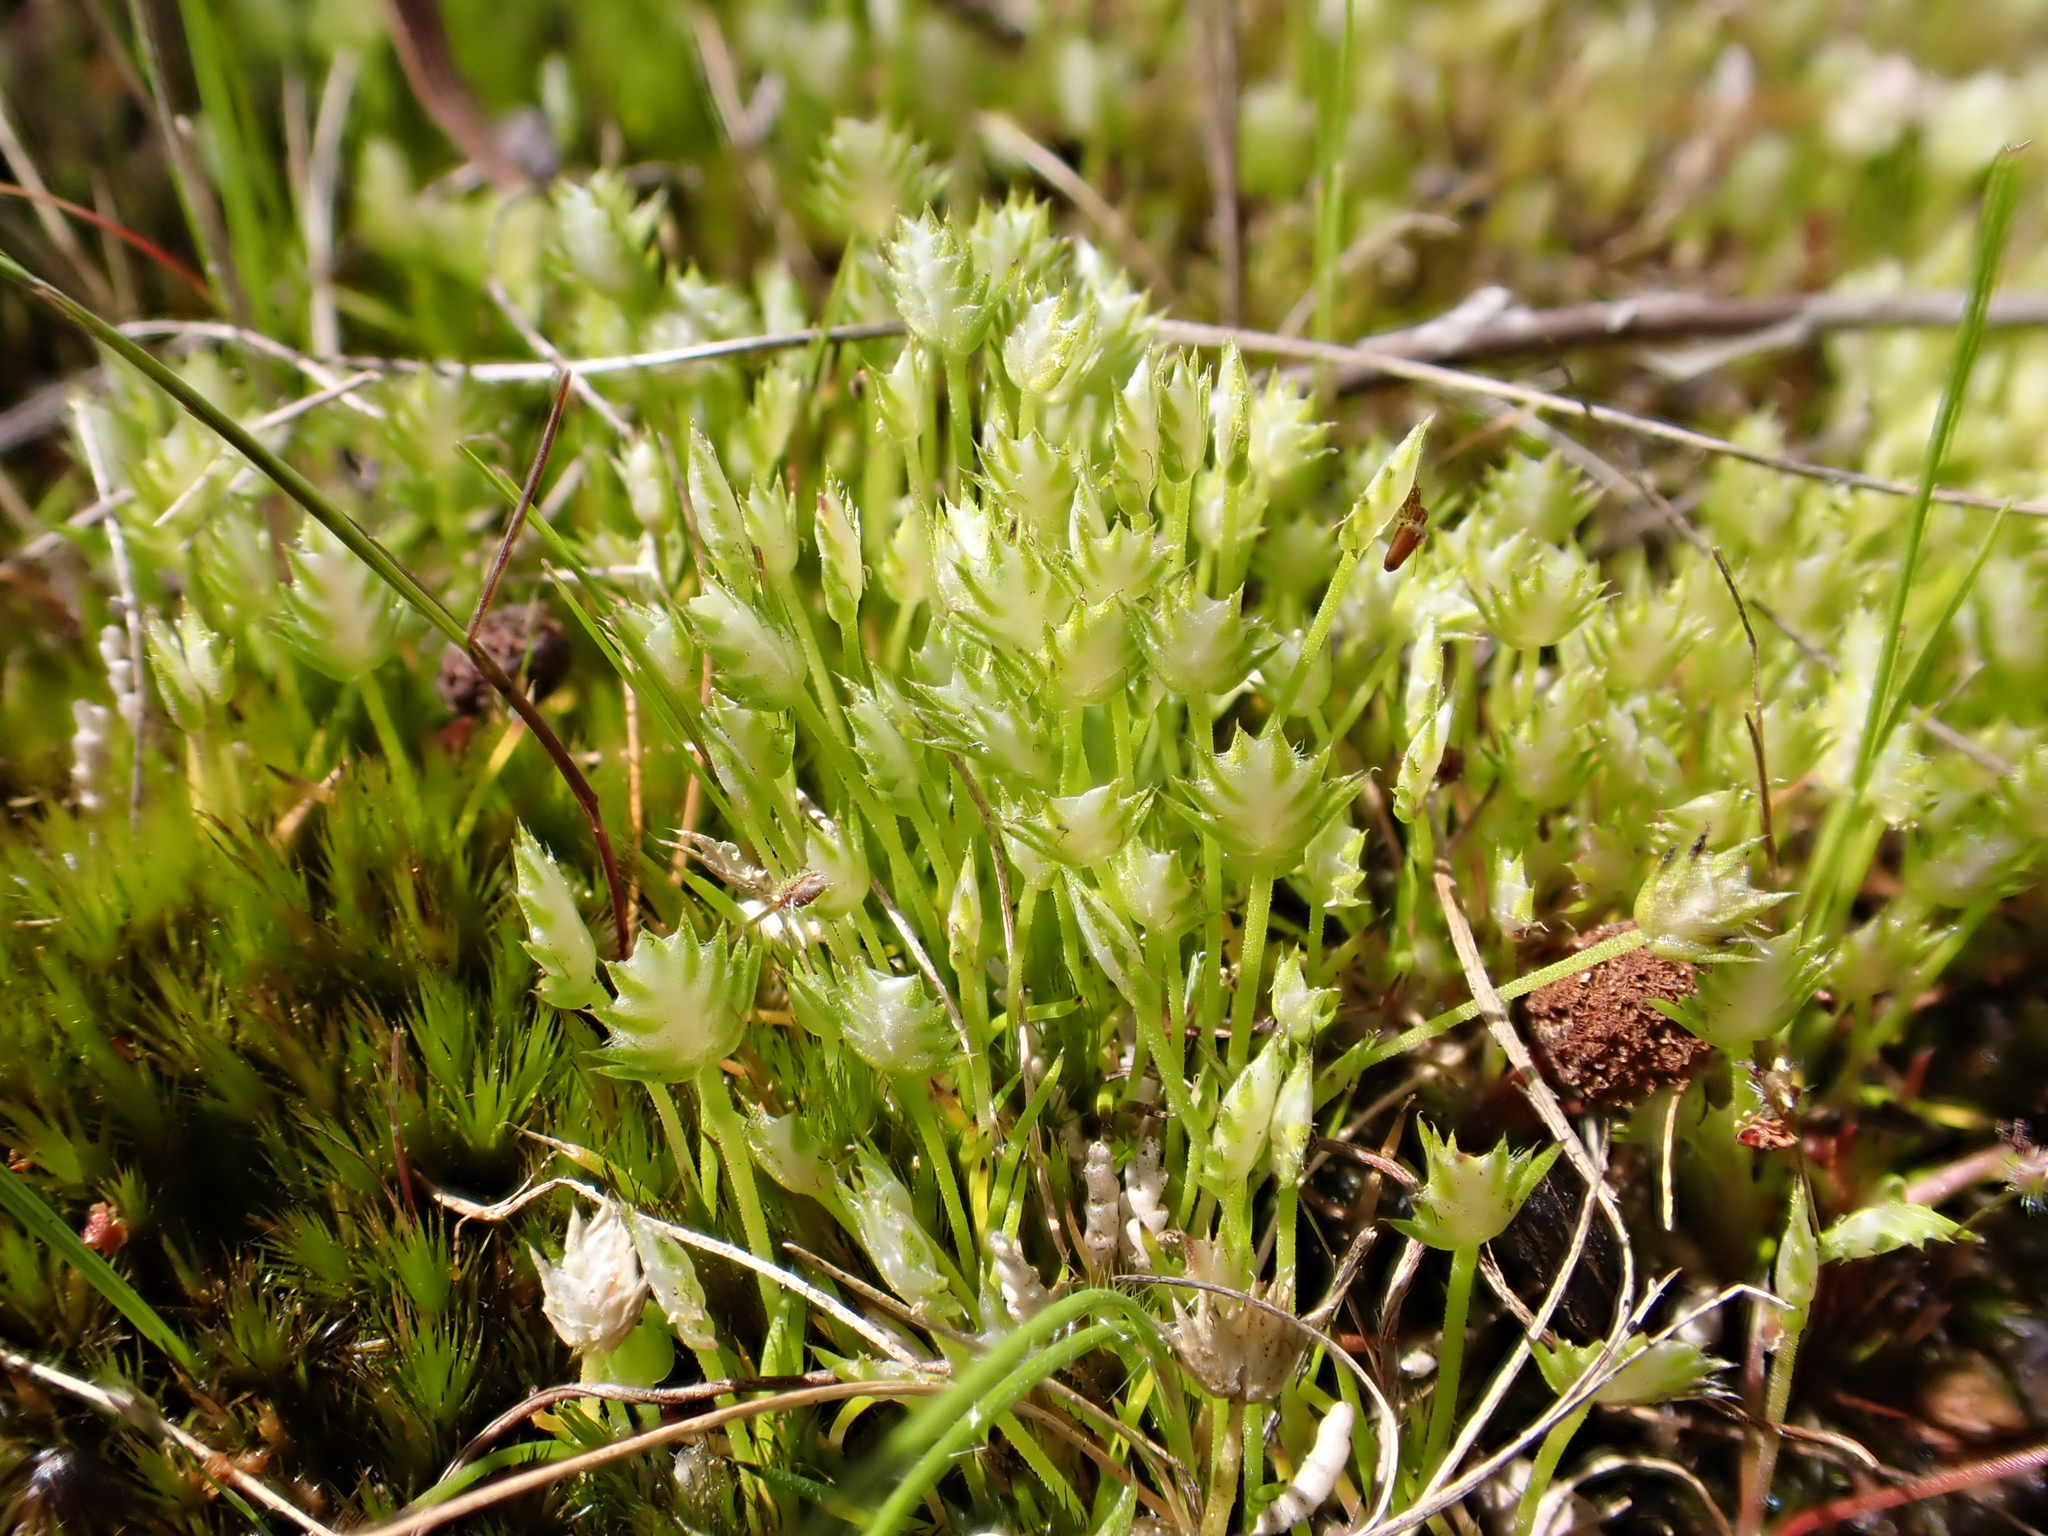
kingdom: Plantae
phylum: Tracheophyta
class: Liliopsida
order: Poales
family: Restionaceae
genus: Aphelia
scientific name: Aphelia pumilio
